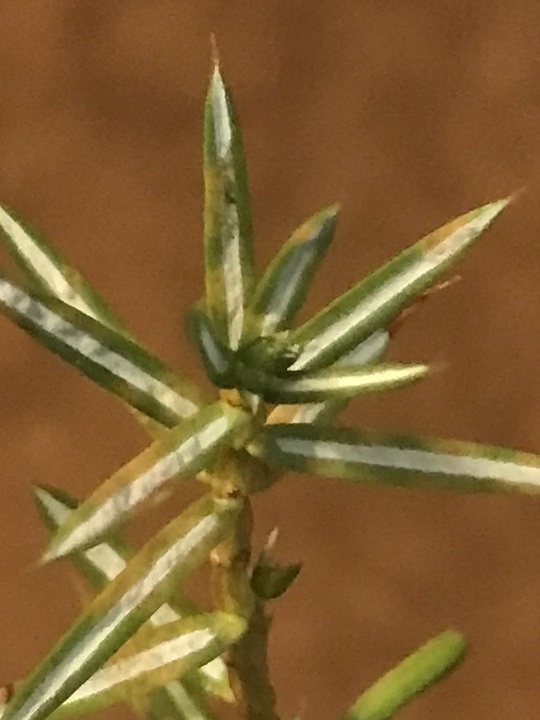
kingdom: Plantae
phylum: Tracheophyta
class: Pinopsida
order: Pinales
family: Cupressaceae
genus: Juniperus
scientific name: Juniperus communis
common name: Common juniper
